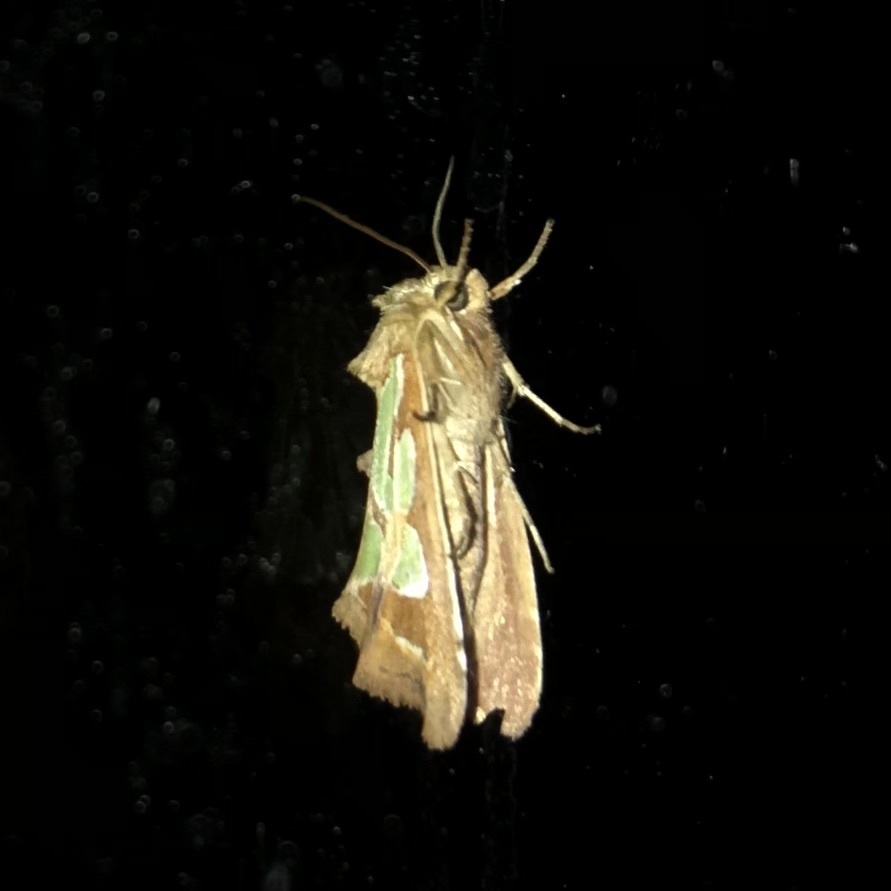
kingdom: Animalia
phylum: Arthropoda
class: Insecta
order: Lepidoptera
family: Noctuidae
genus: Cosmodes
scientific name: Cosmodes elegans
